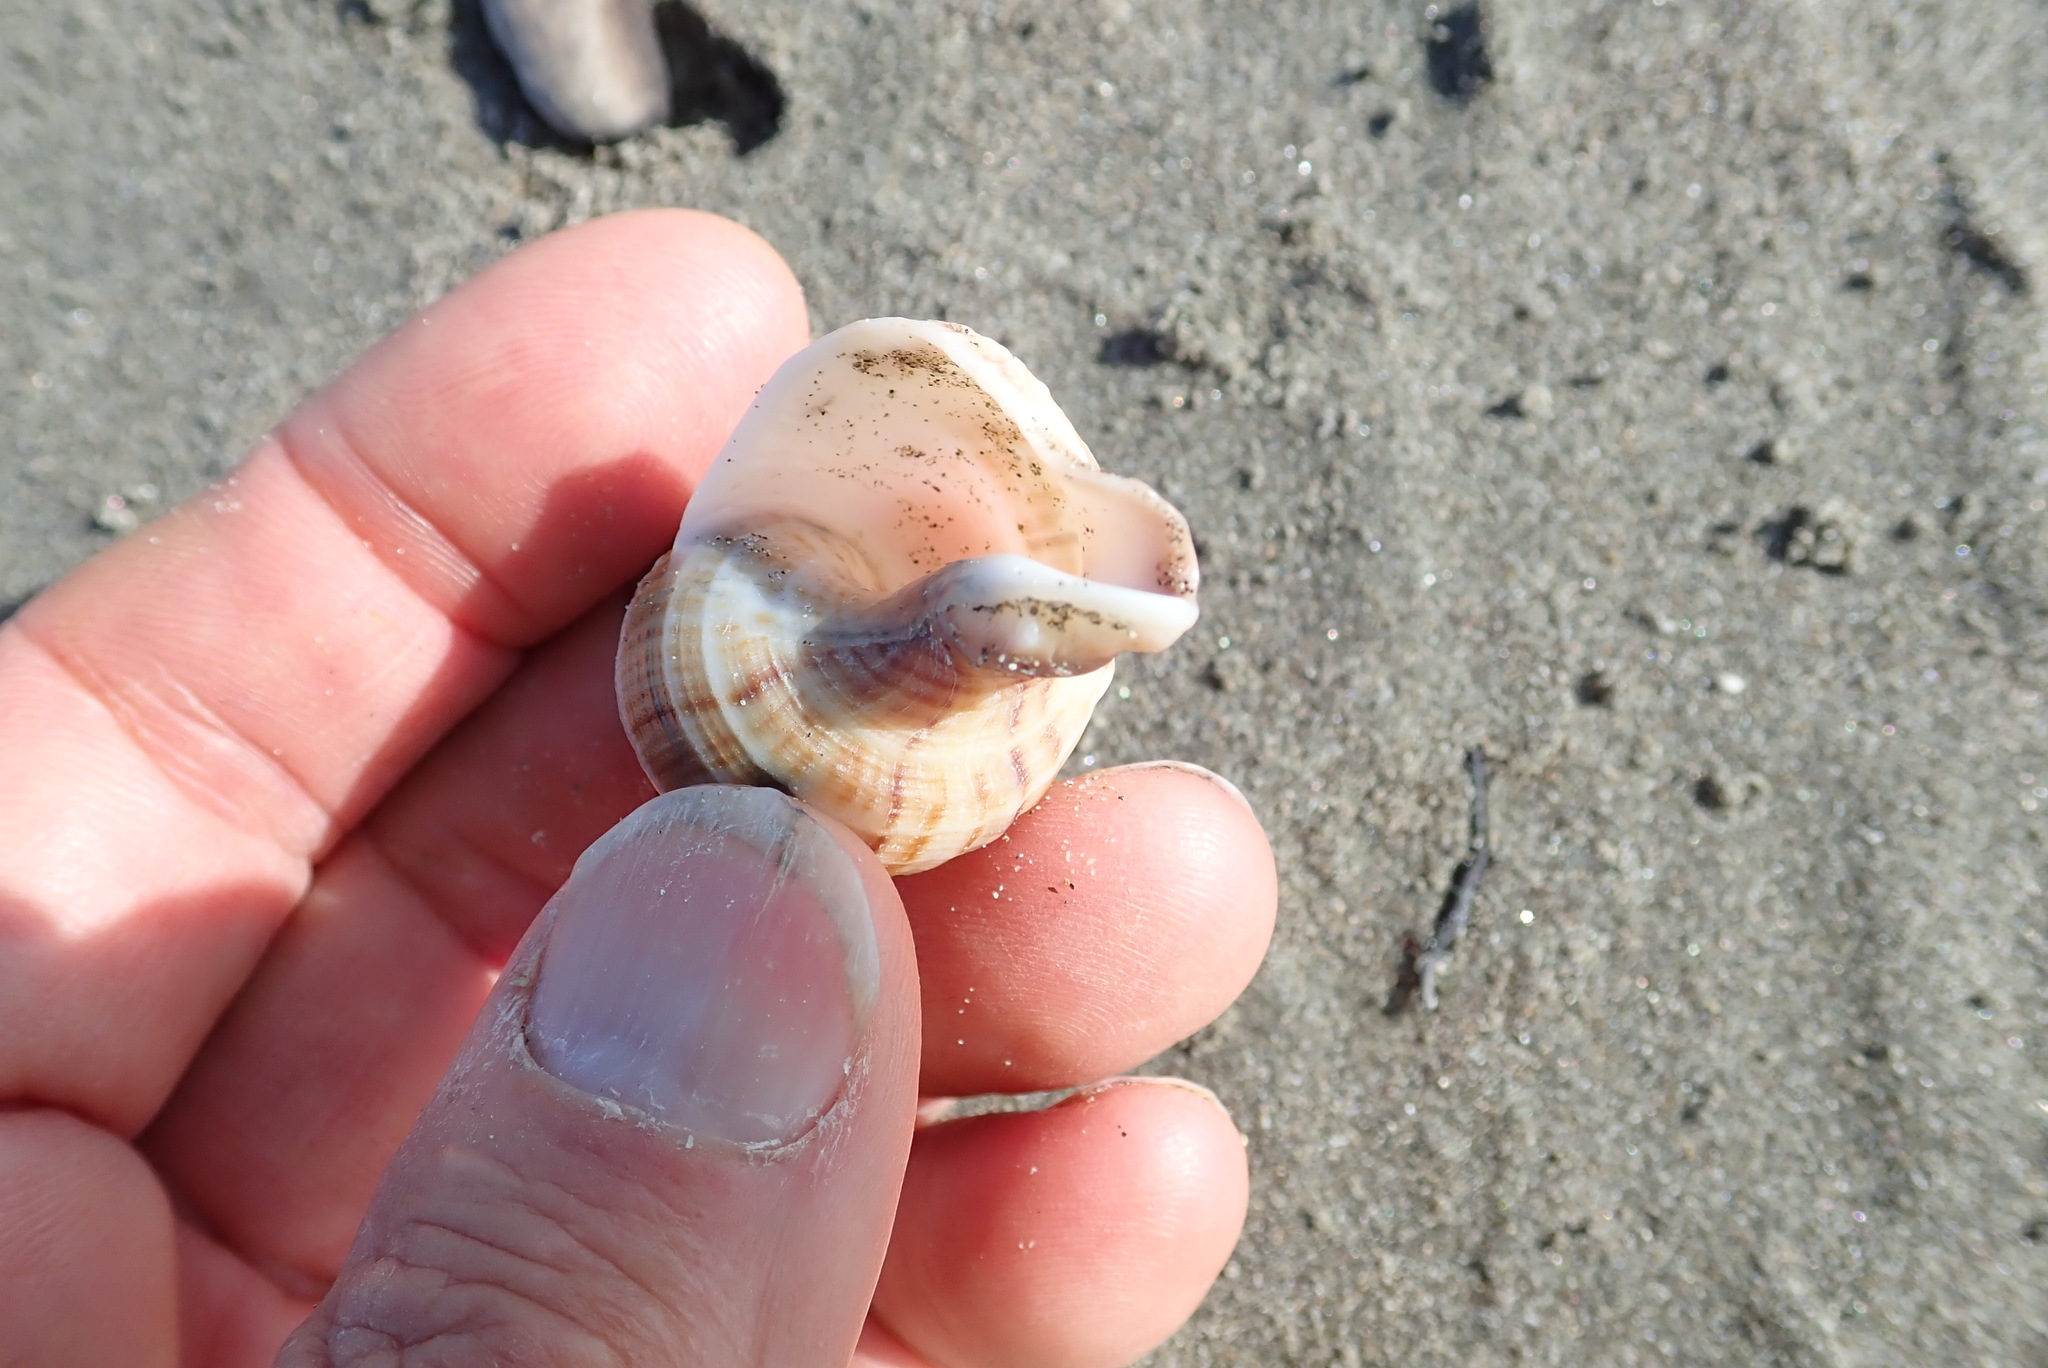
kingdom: Animalia
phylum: Mollusca
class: Gastropoda
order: Neogastropoda
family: Prosiphonidae
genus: Austrofusus
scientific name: Austrofusus glans
